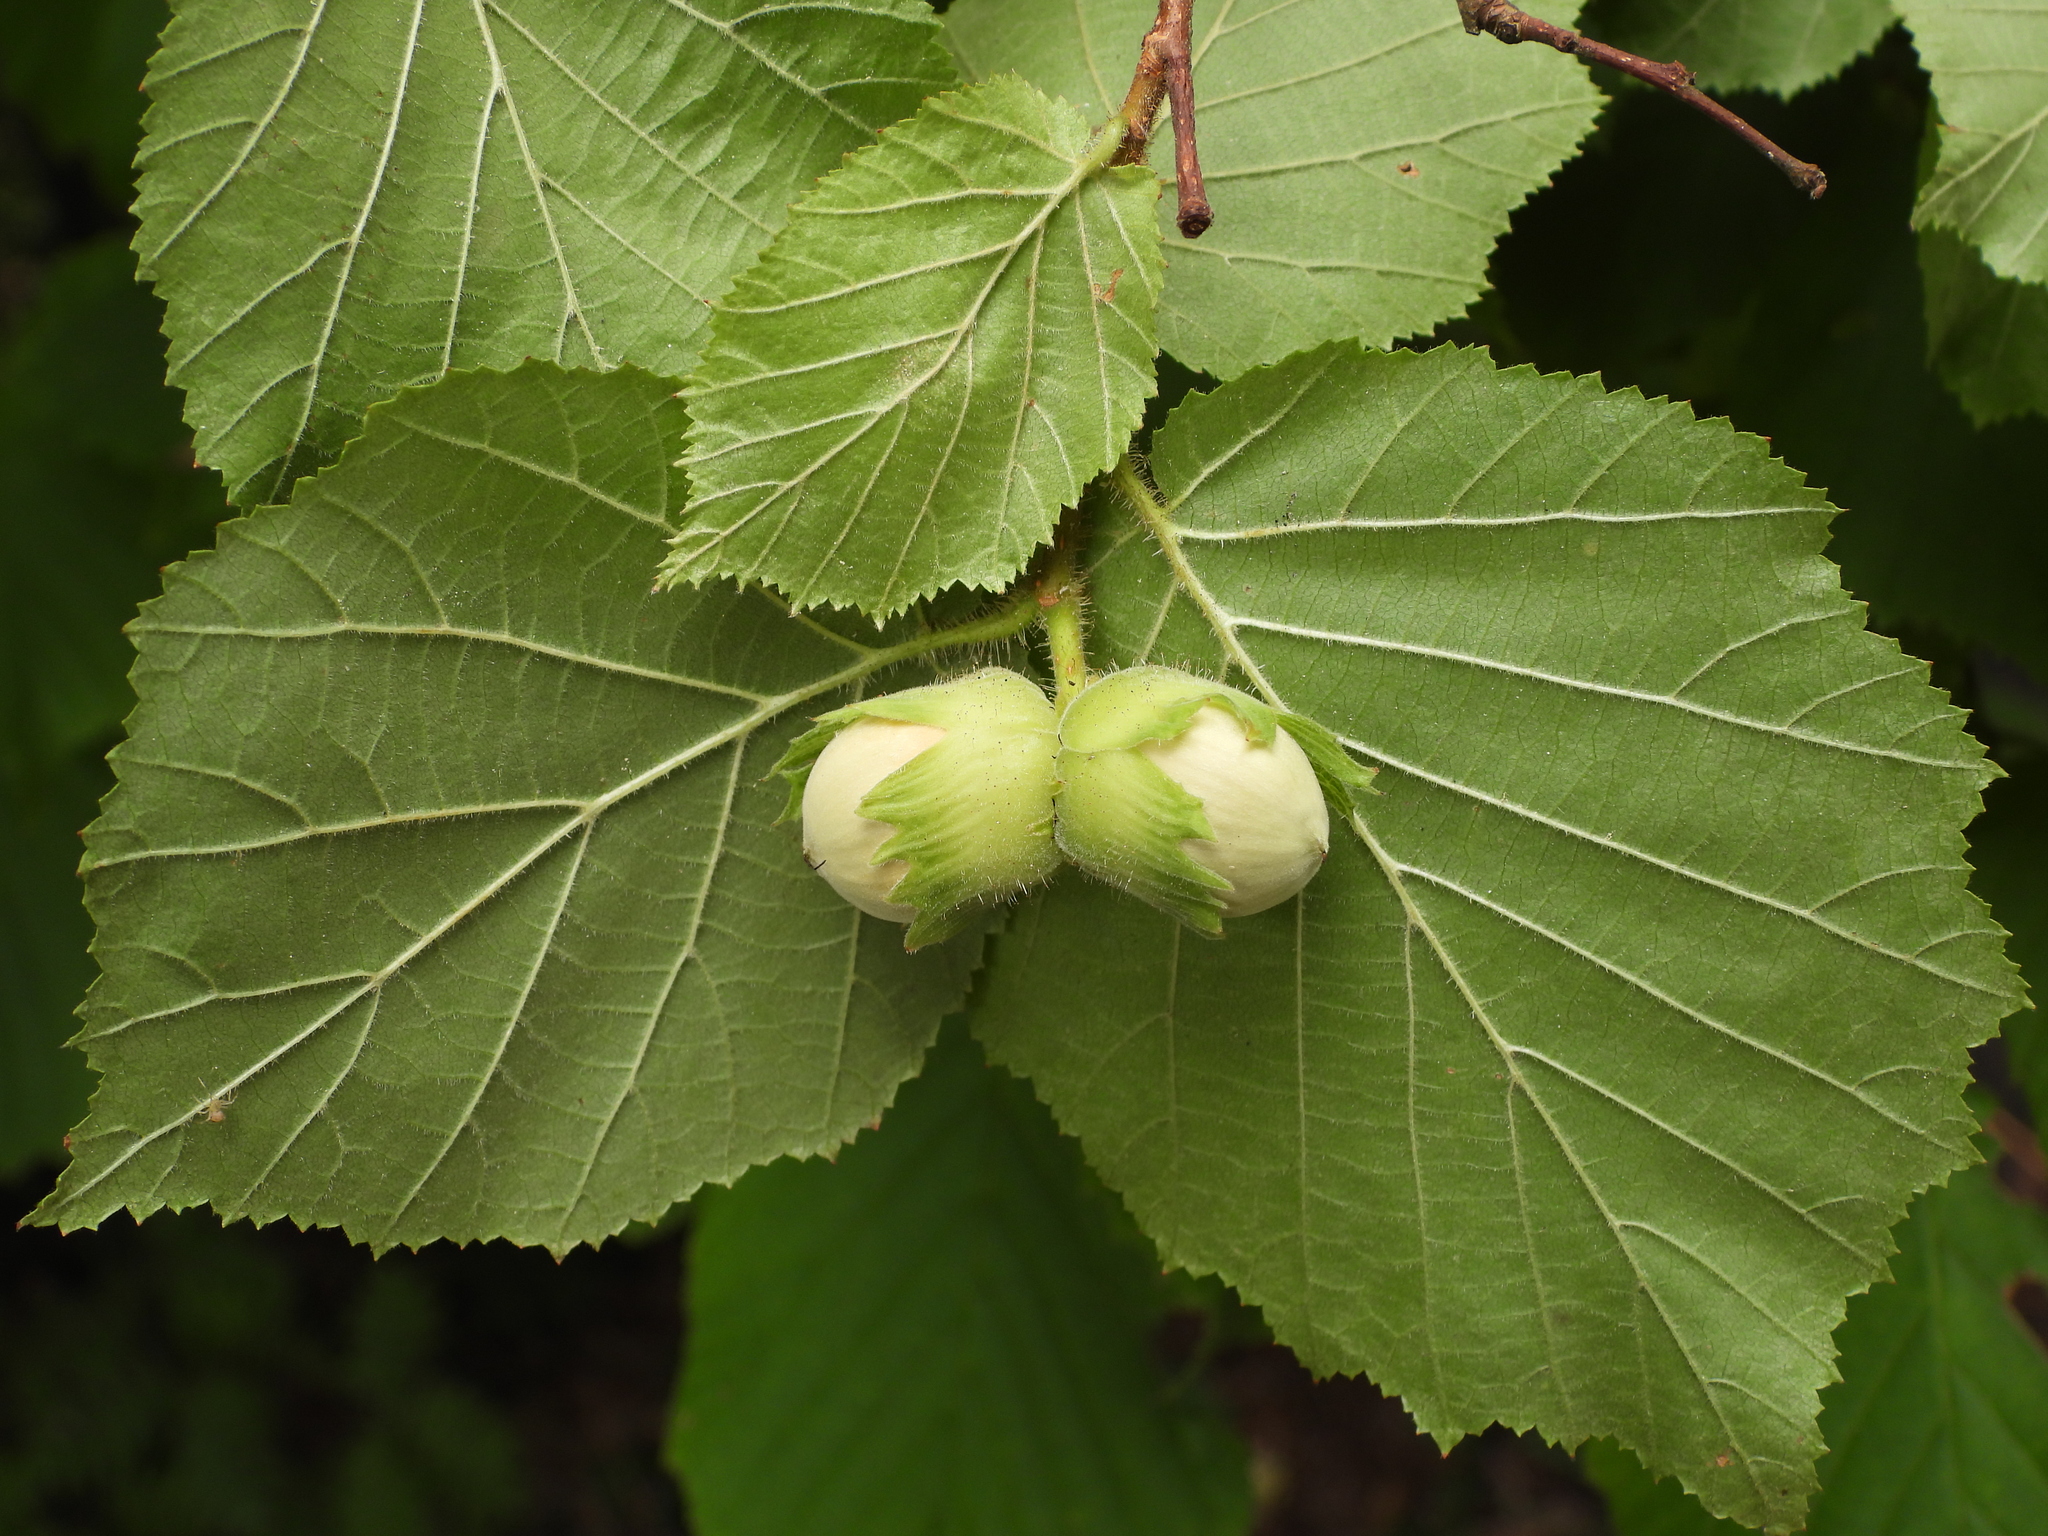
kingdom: Plantae
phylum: Tracheophyta
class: Magnoliopsida
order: Fagales
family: Betulaceae
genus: Corylus
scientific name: Corylus avellana
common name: European hazel
